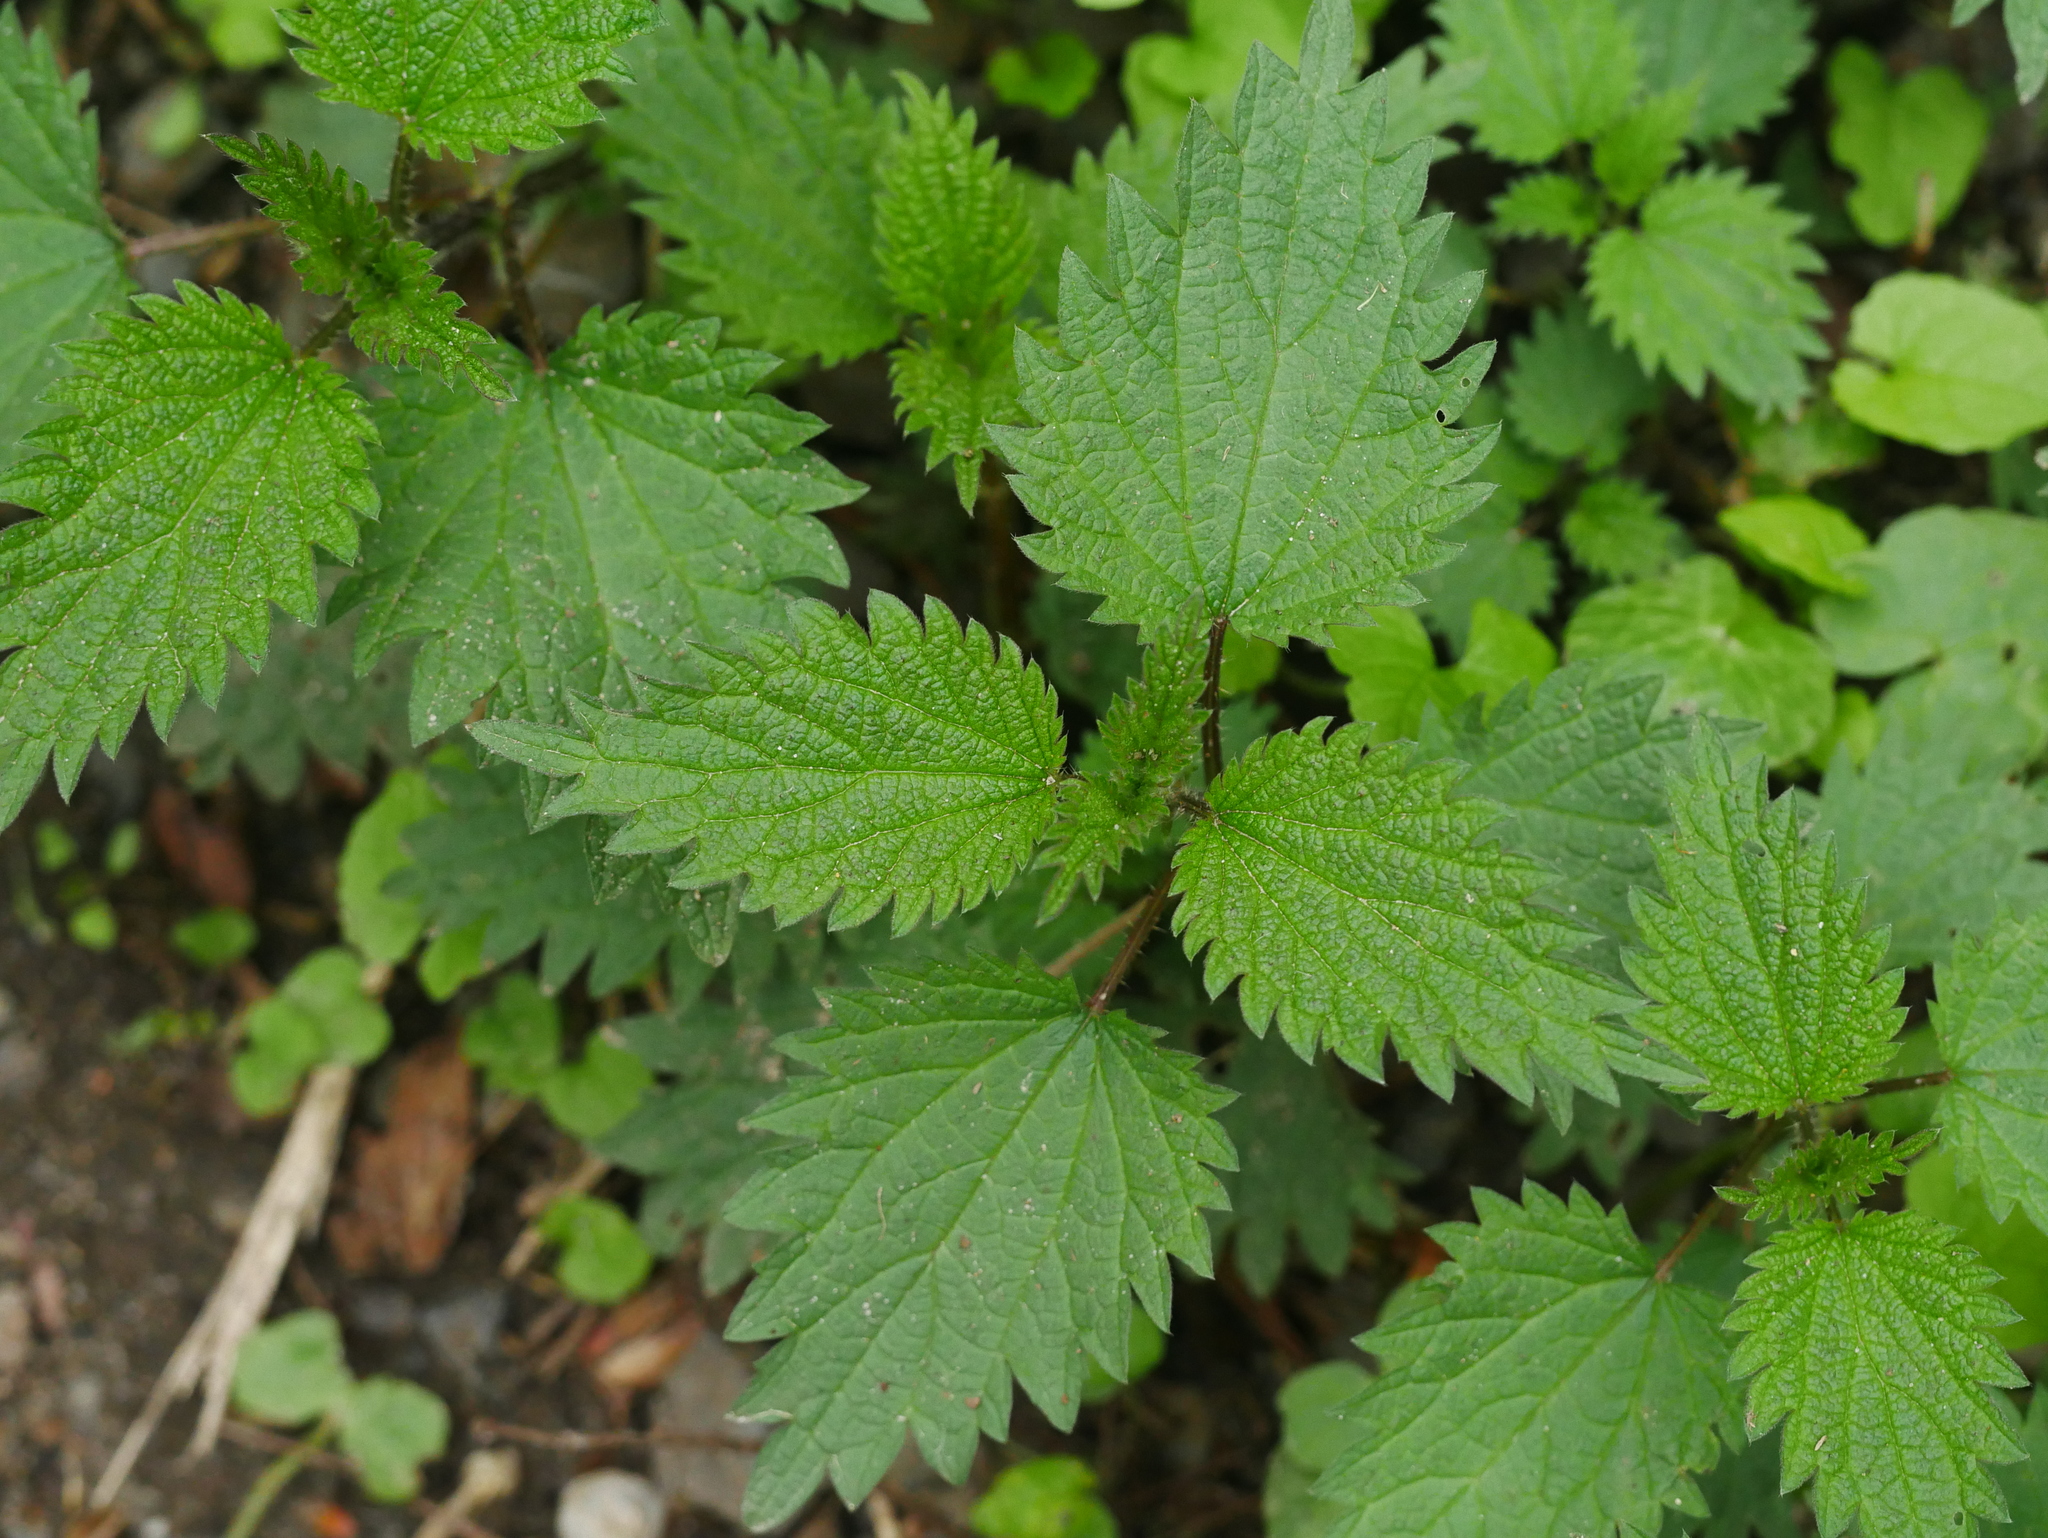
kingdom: Plantae
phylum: Tracheophyta
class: Magnoliopsida
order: Rosales
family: Urticaceae
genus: Urtica
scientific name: Urtica dioica
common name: Common nettle
